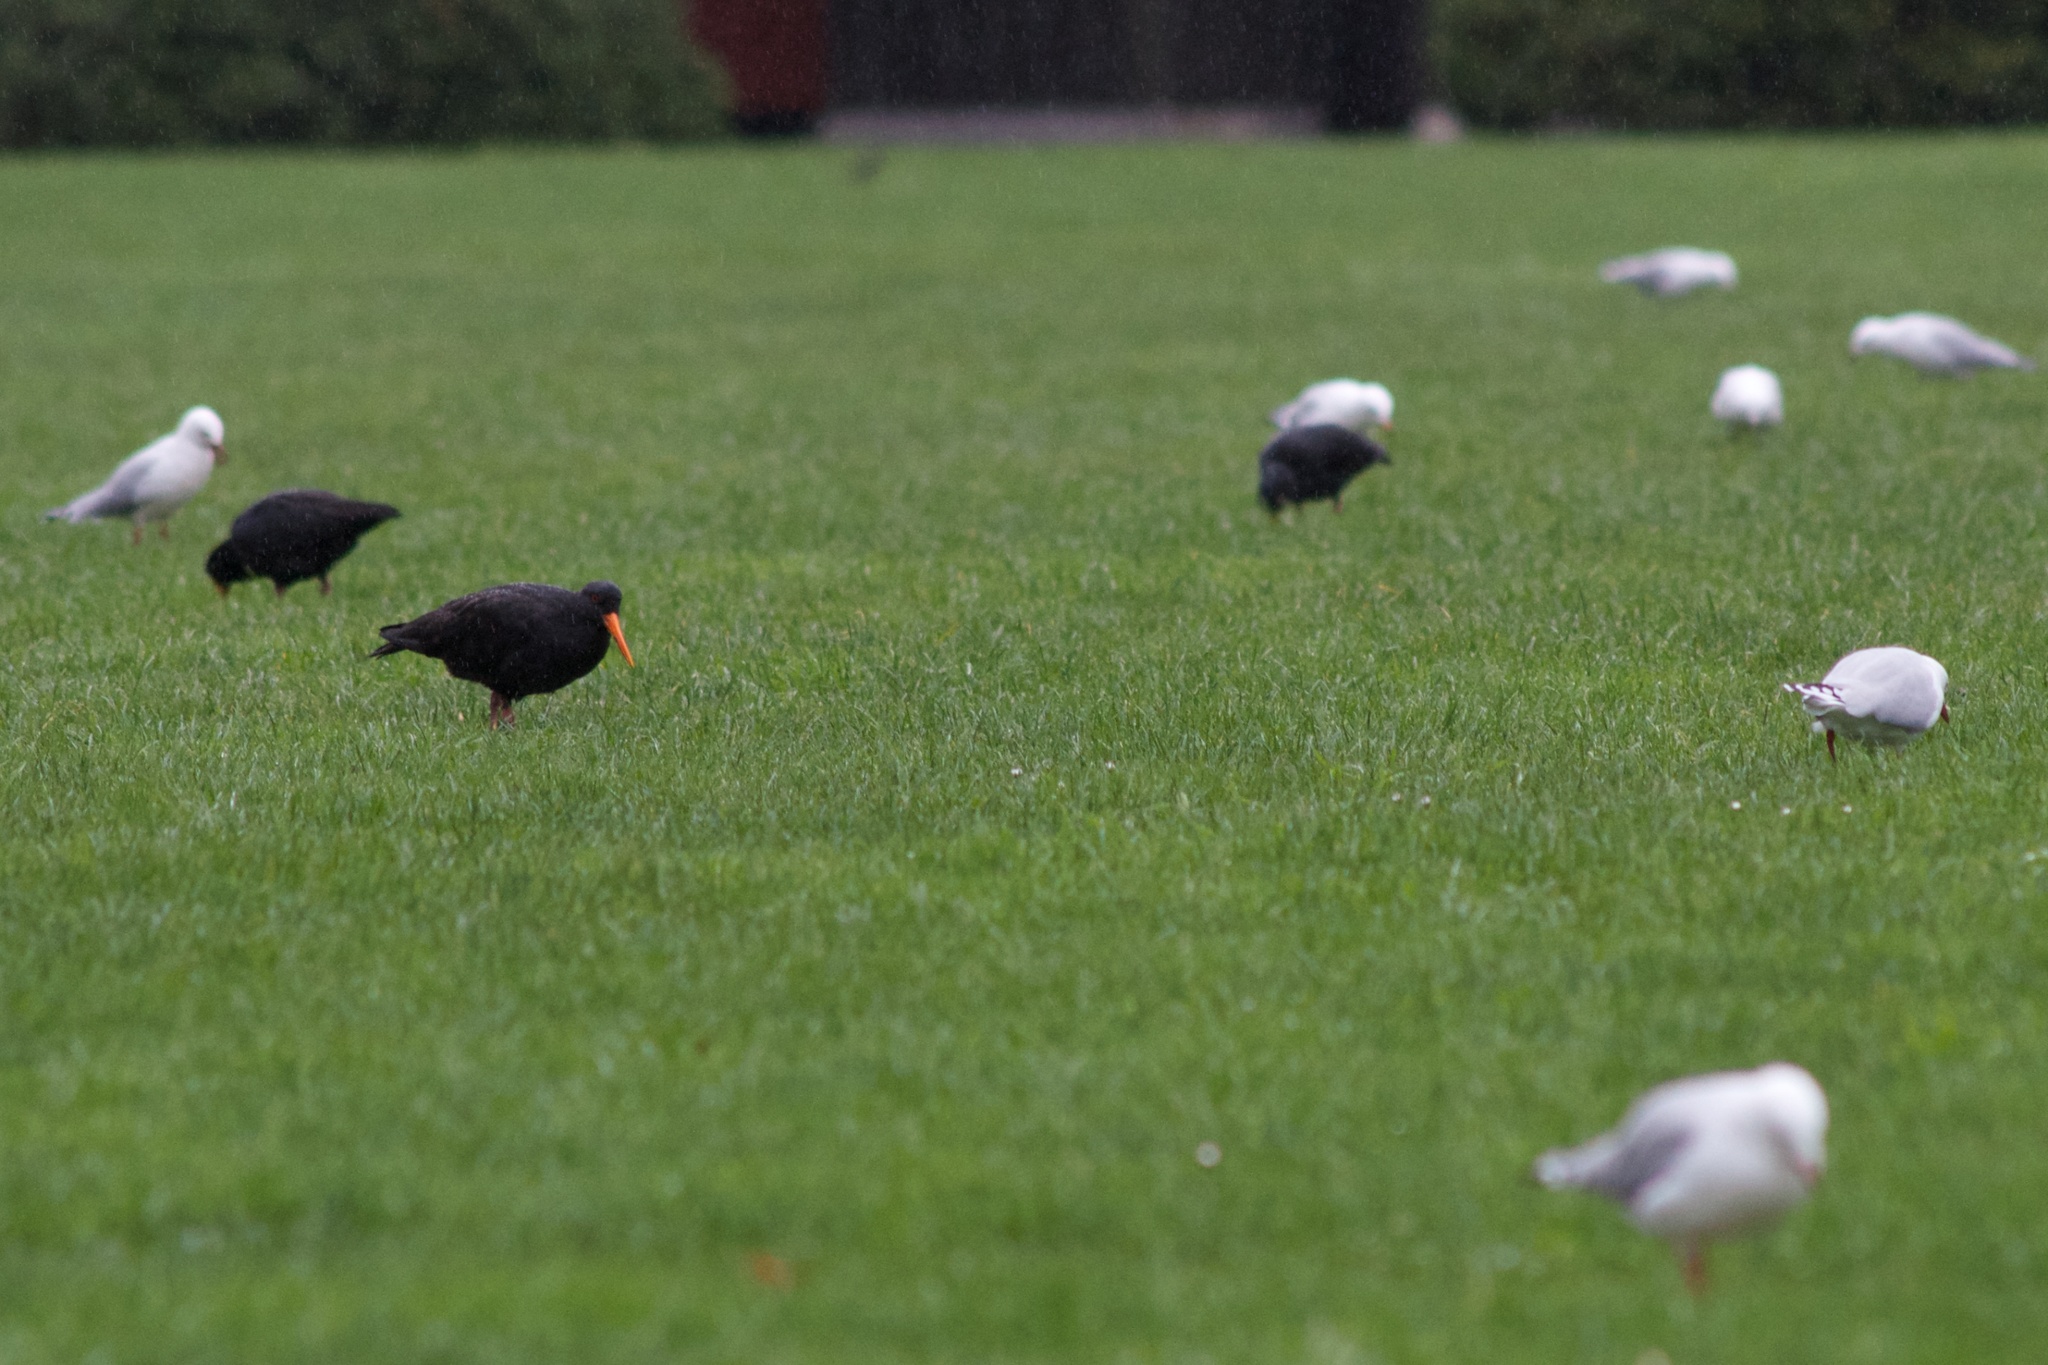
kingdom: Animalia
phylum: Chordata
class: Aves
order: Charadriiformes
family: Haematopodidae
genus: Haematopus
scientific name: Haematopus unicolor
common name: Variable oystercatcher
